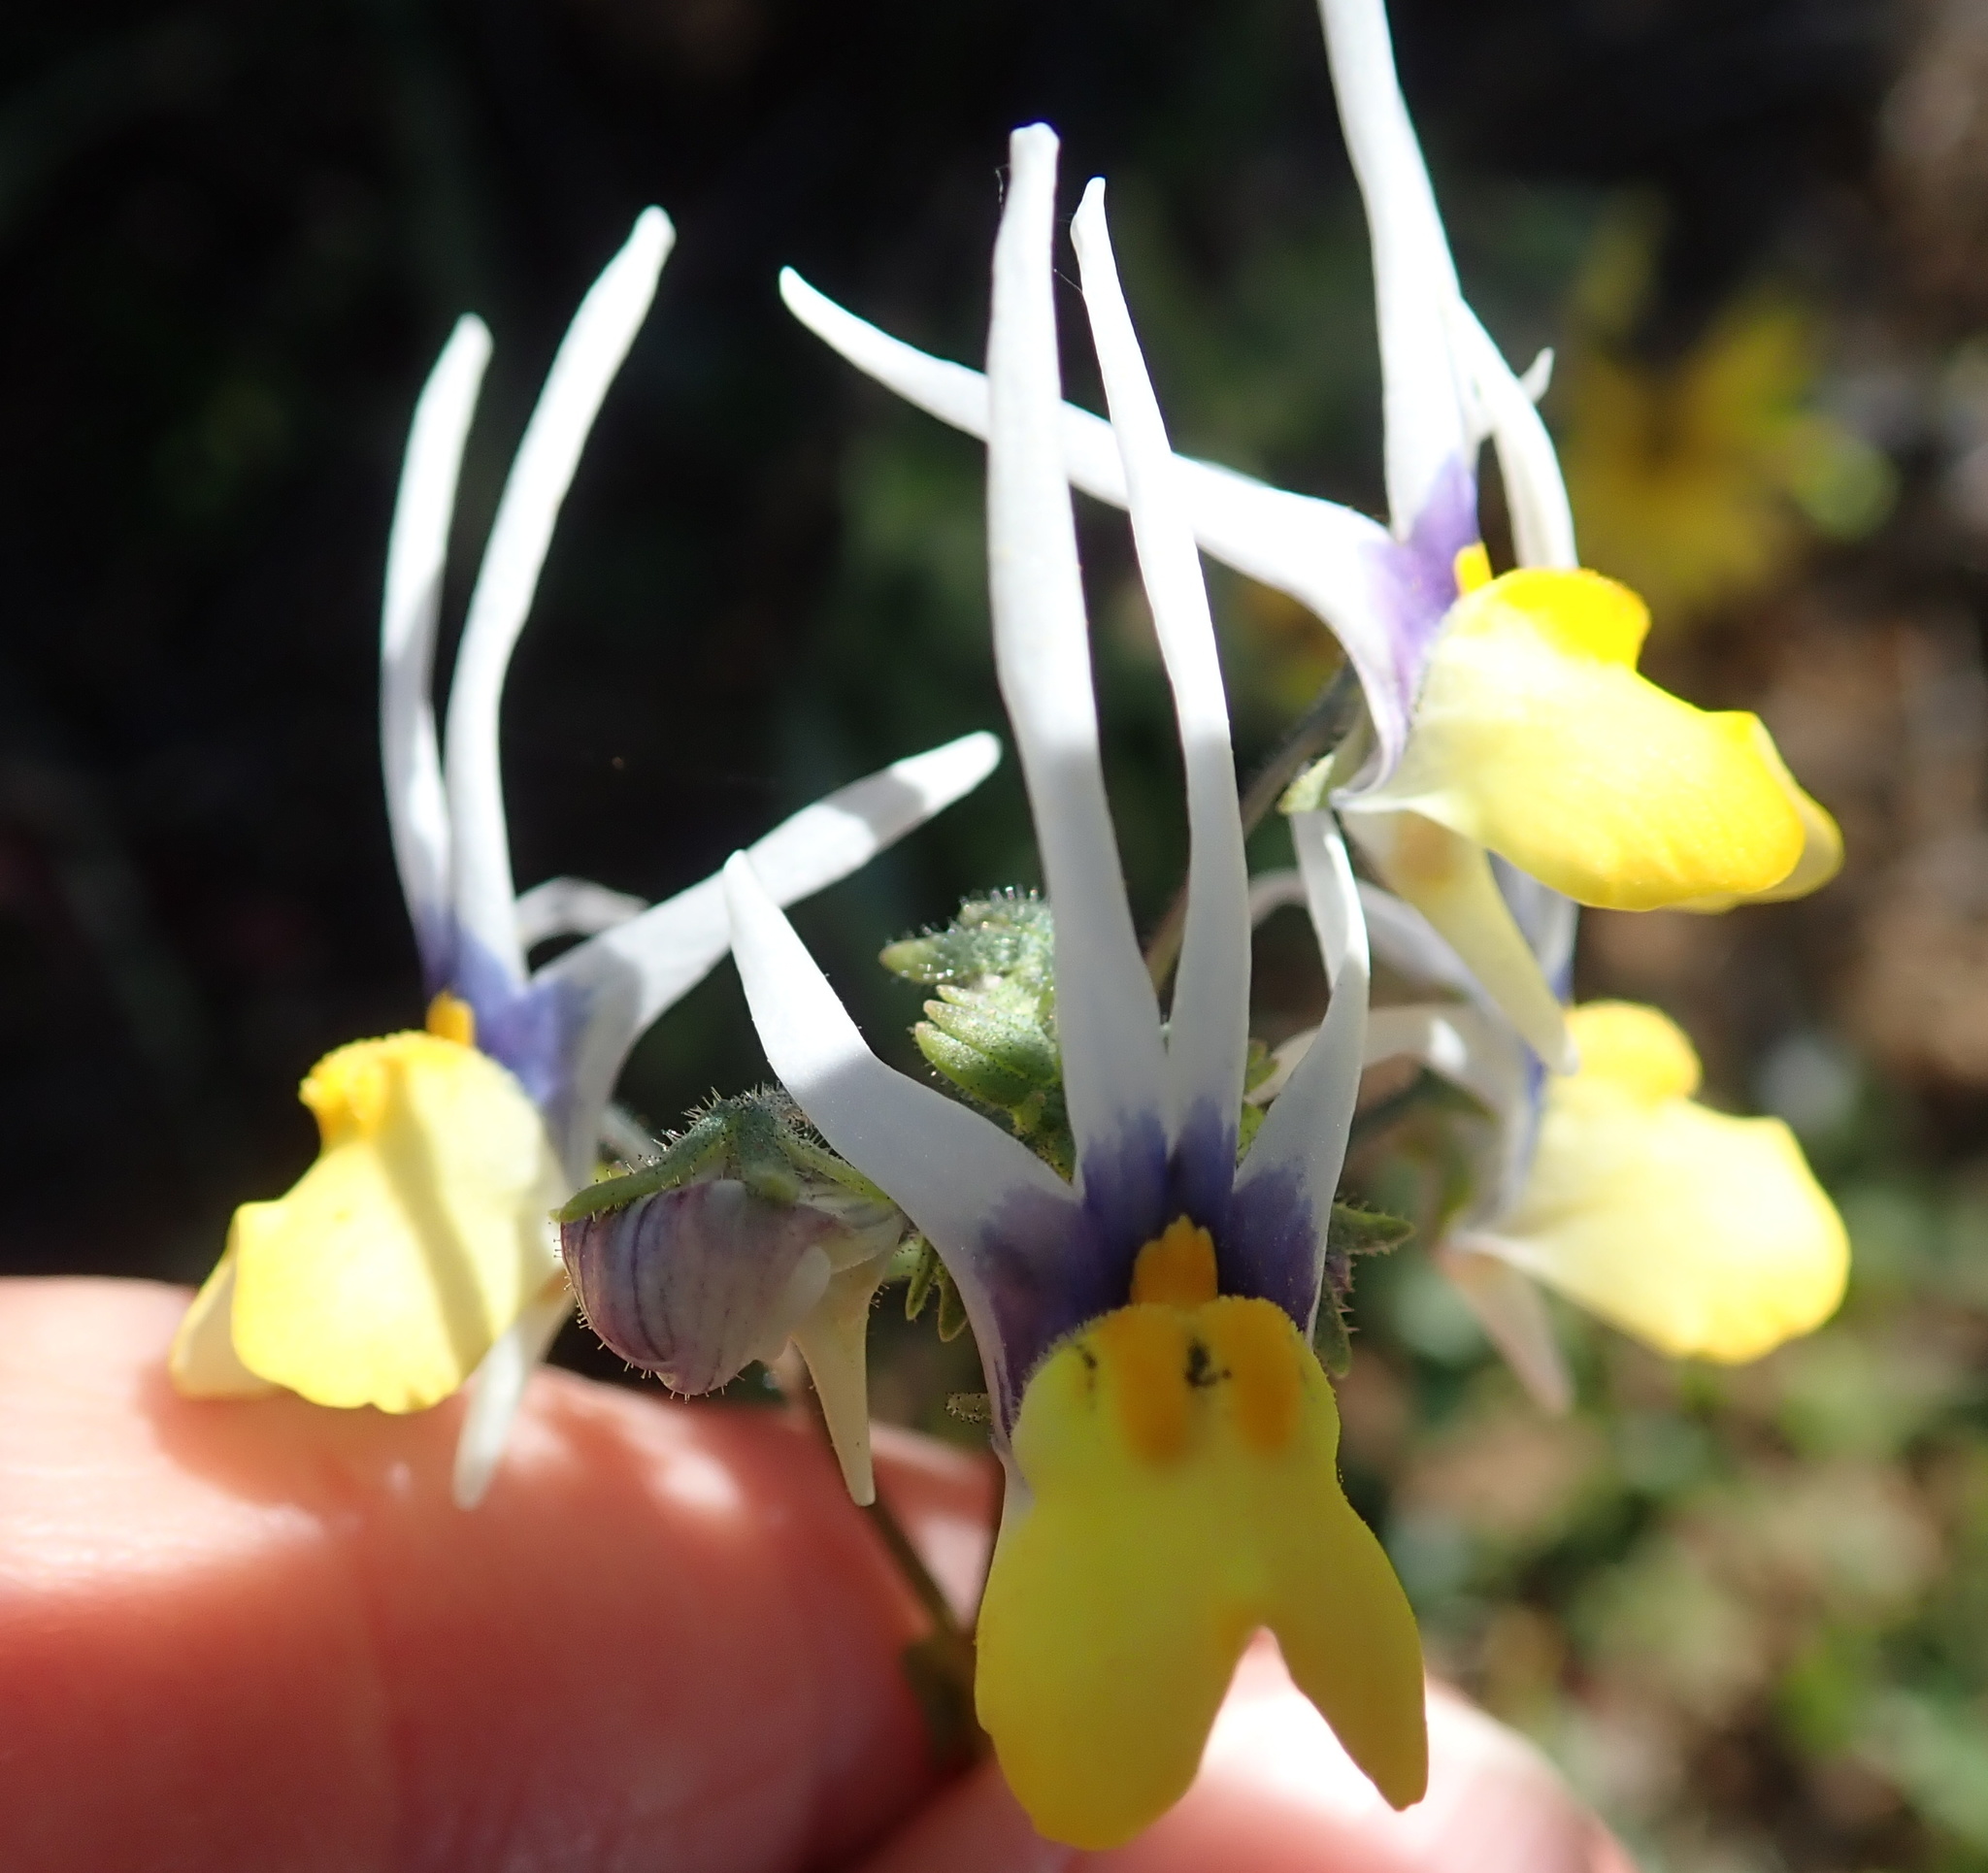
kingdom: Plantae
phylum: Tracheophyta
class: Magnoliopsida
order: Lamiales
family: Scrophulariaceae
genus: Nemesia
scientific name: Nemesia cheiranthus
